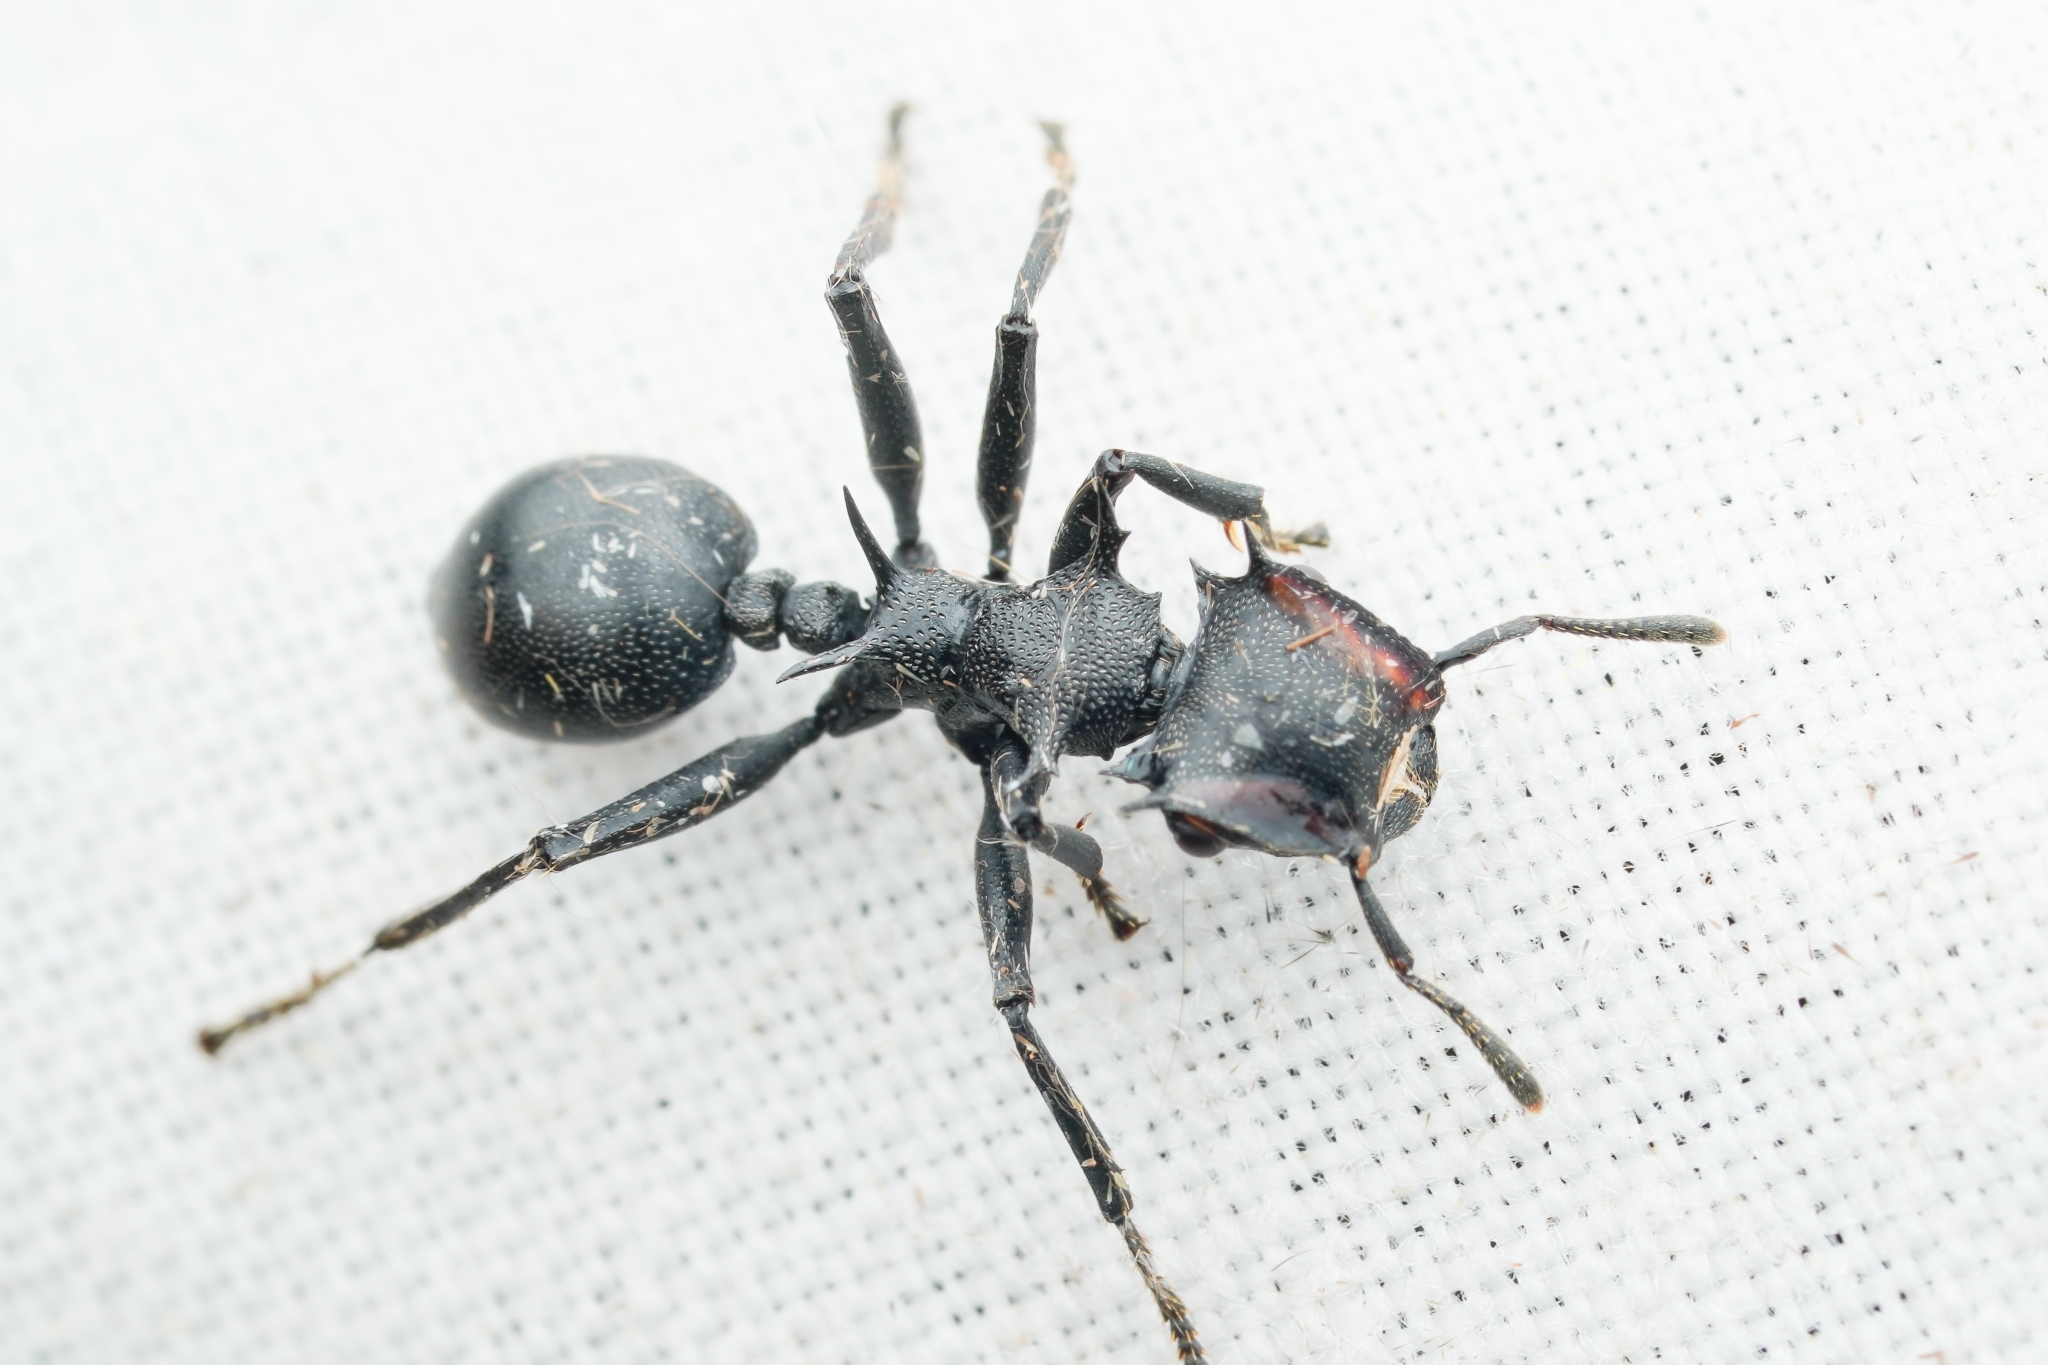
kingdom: Animalia
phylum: Arthropoda
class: Insecta
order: Hymenoptera
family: Formicidae
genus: Cephalotes
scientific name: Cephalotes atratus
